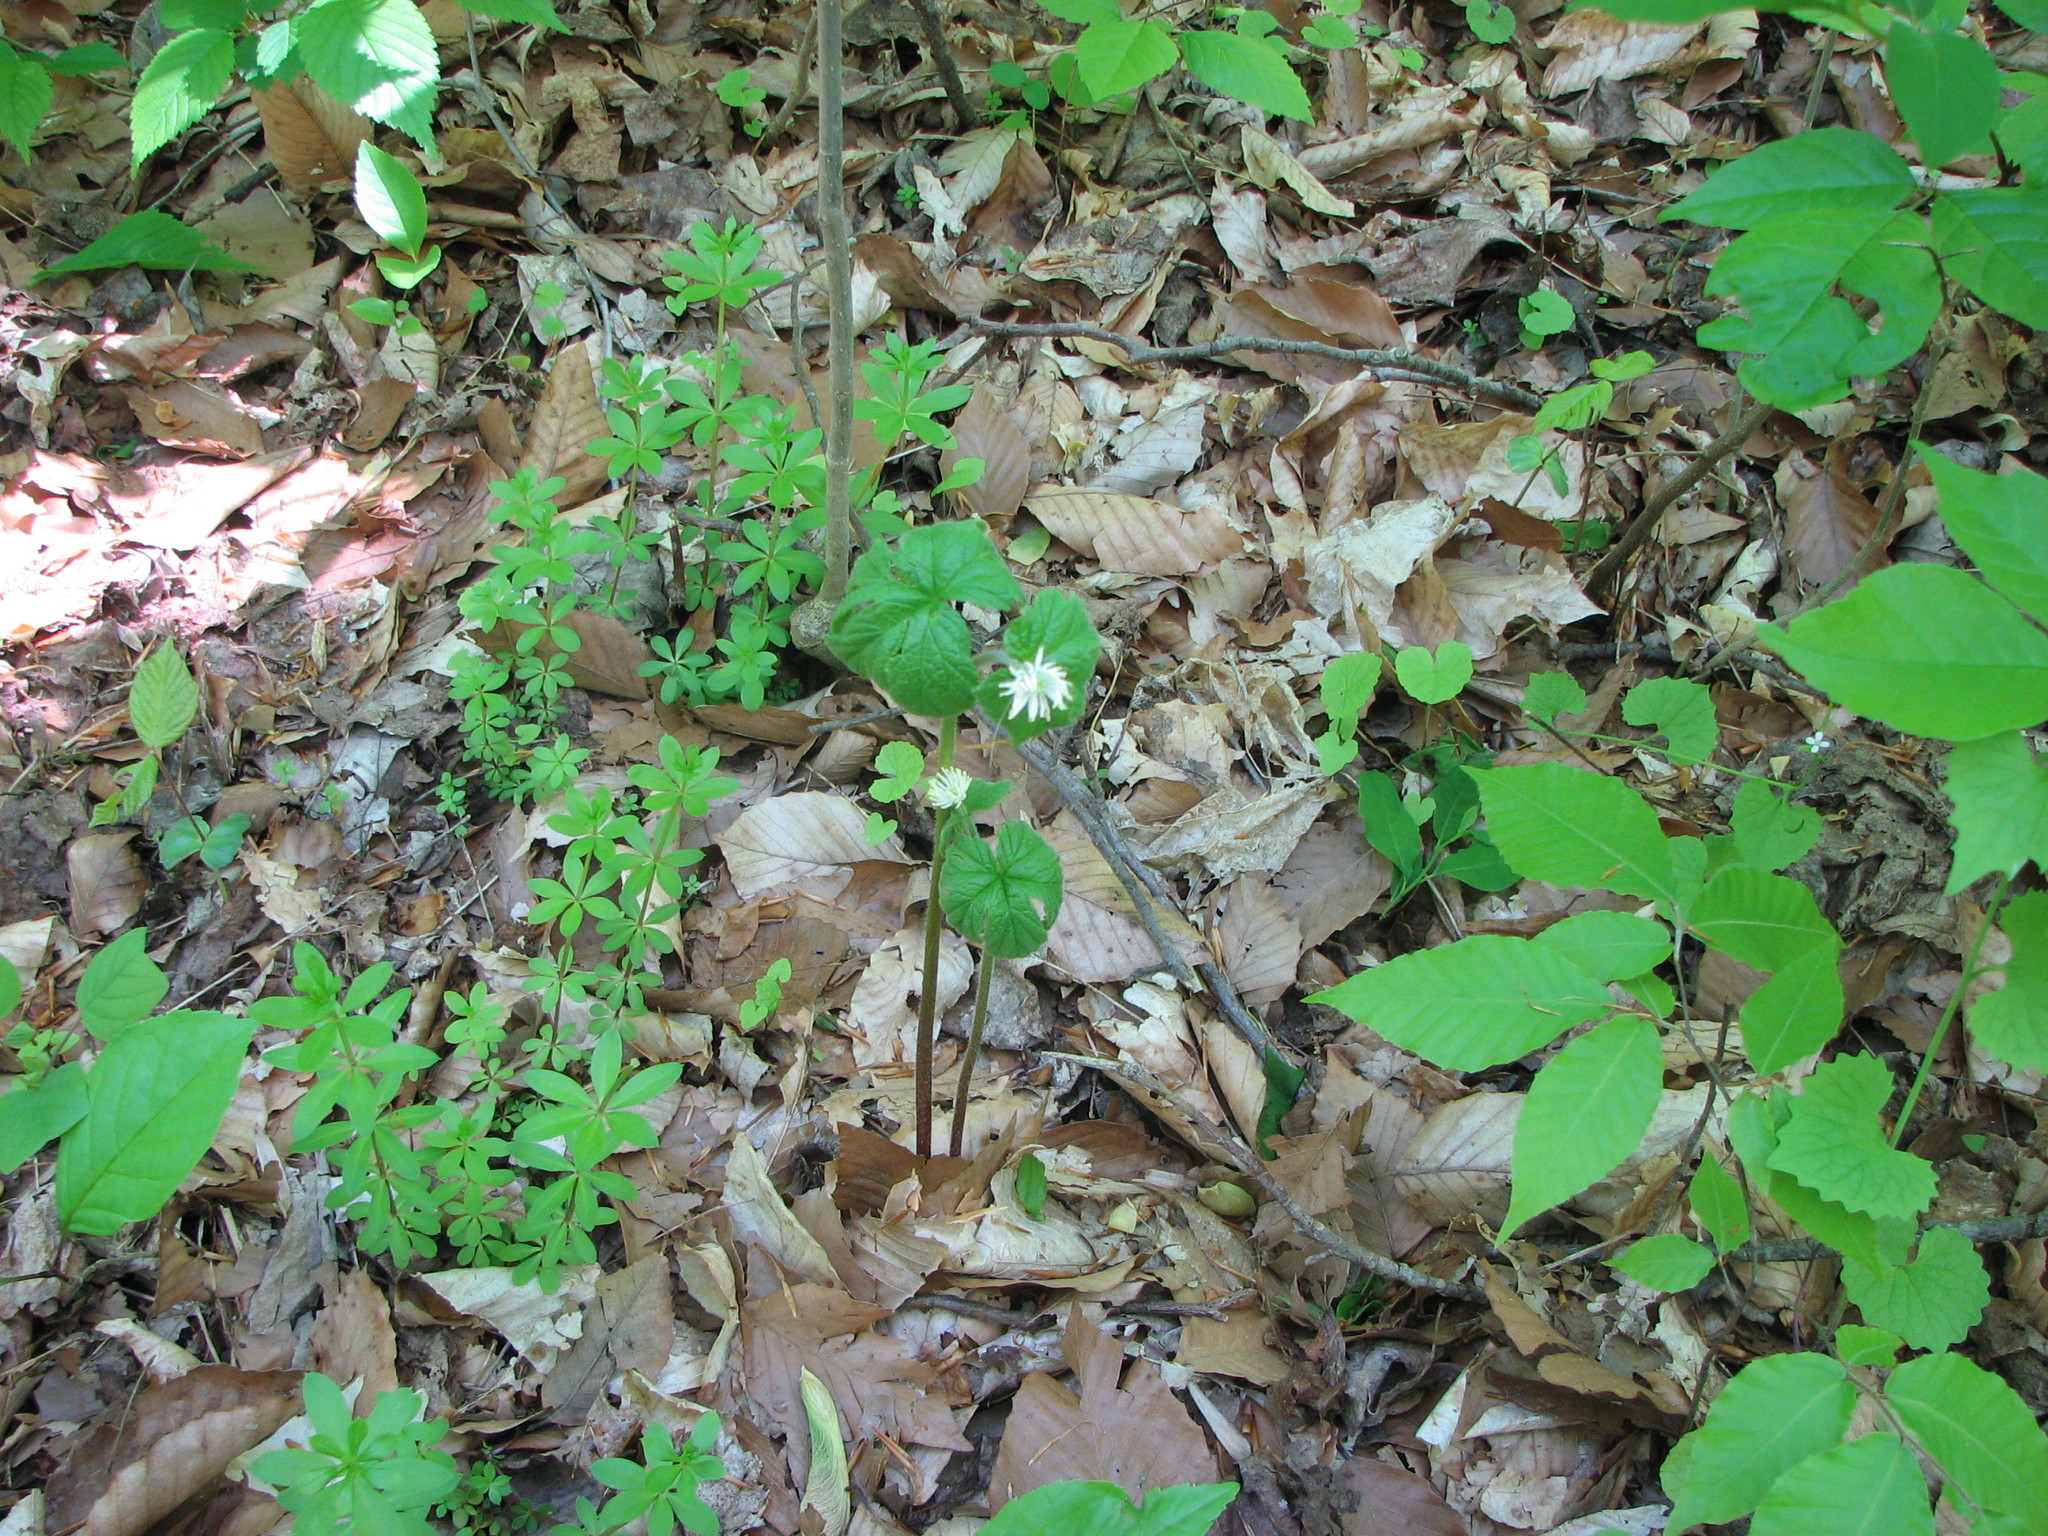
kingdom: Plantae
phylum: Tracheophyta
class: Magnoliopsida
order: Ranunculales
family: Ranunculaceae
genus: Hydrastis
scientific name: Hydrastis canadensis
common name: Goldenseal
